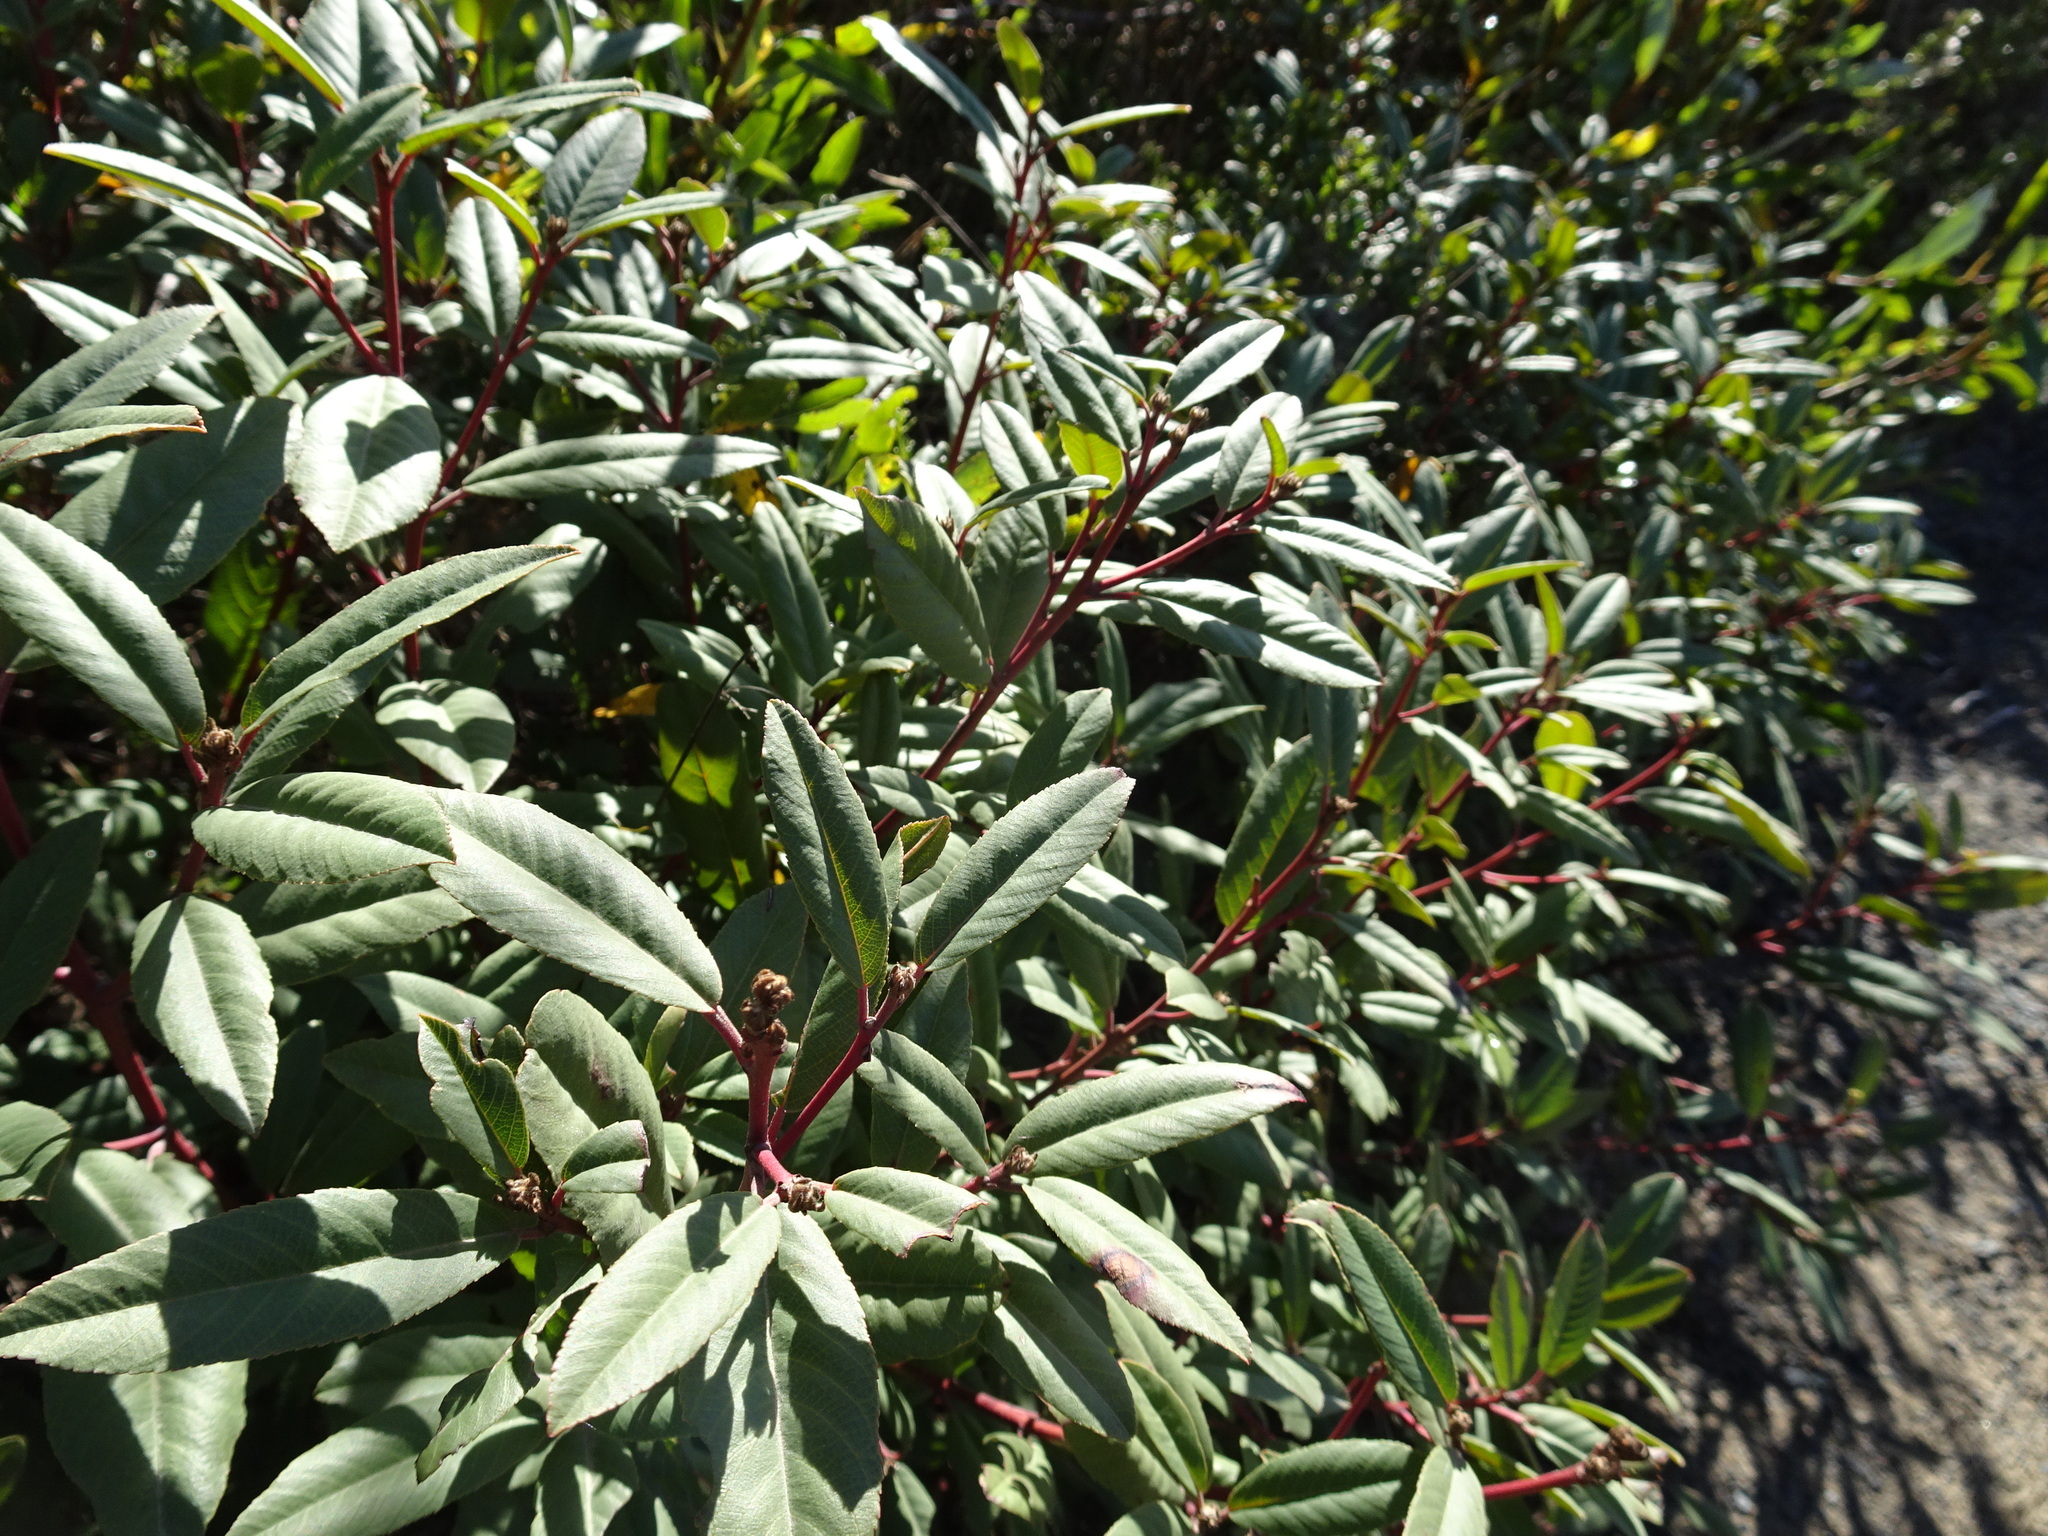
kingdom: Plantae
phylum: Tracheophyta
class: Magnoliopsida
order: Rosales
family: Rhamnaceae
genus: Frangula
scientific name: Frangula californica
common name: California buckthorn
